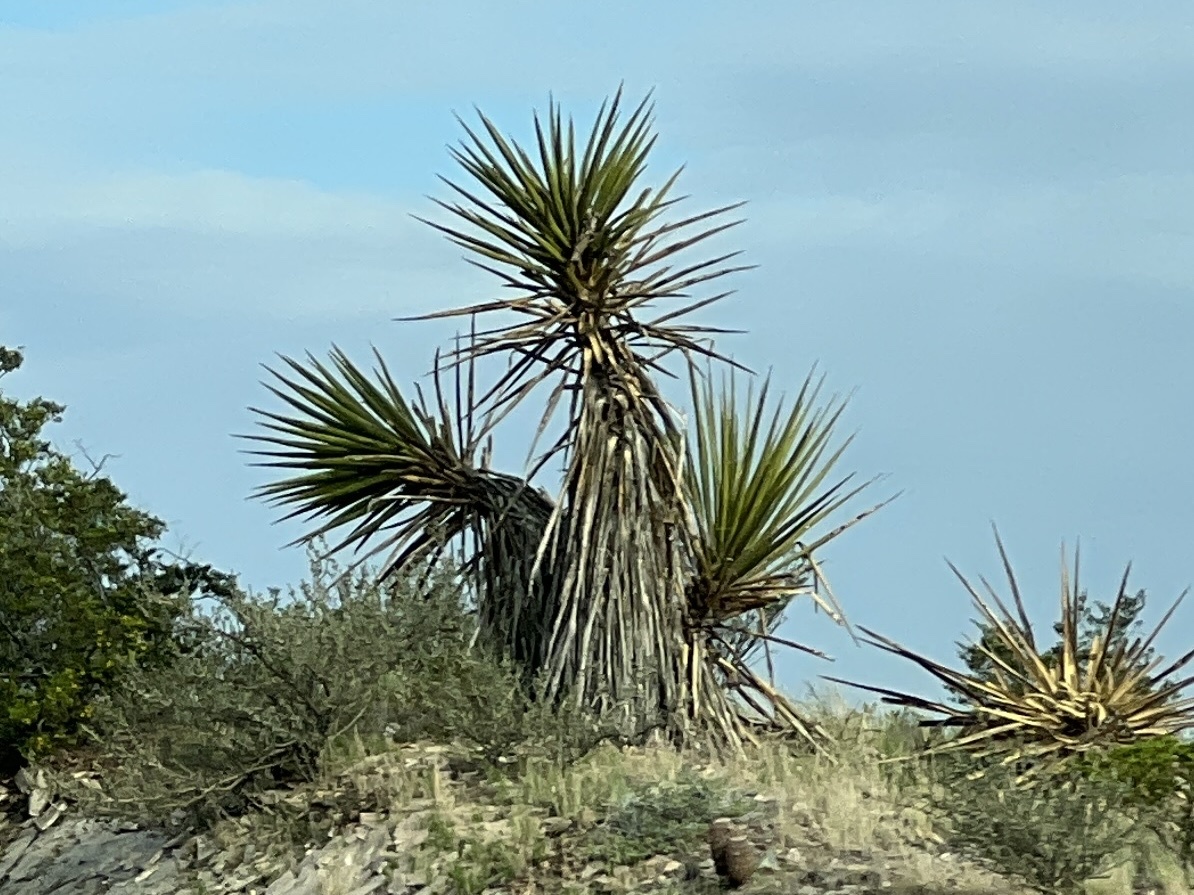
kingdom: Plantae
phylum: Tracheophyta
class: Liliopsida
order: Asparagales
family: Asparagaceae
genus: Yucca
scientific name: Yucca treculiana
